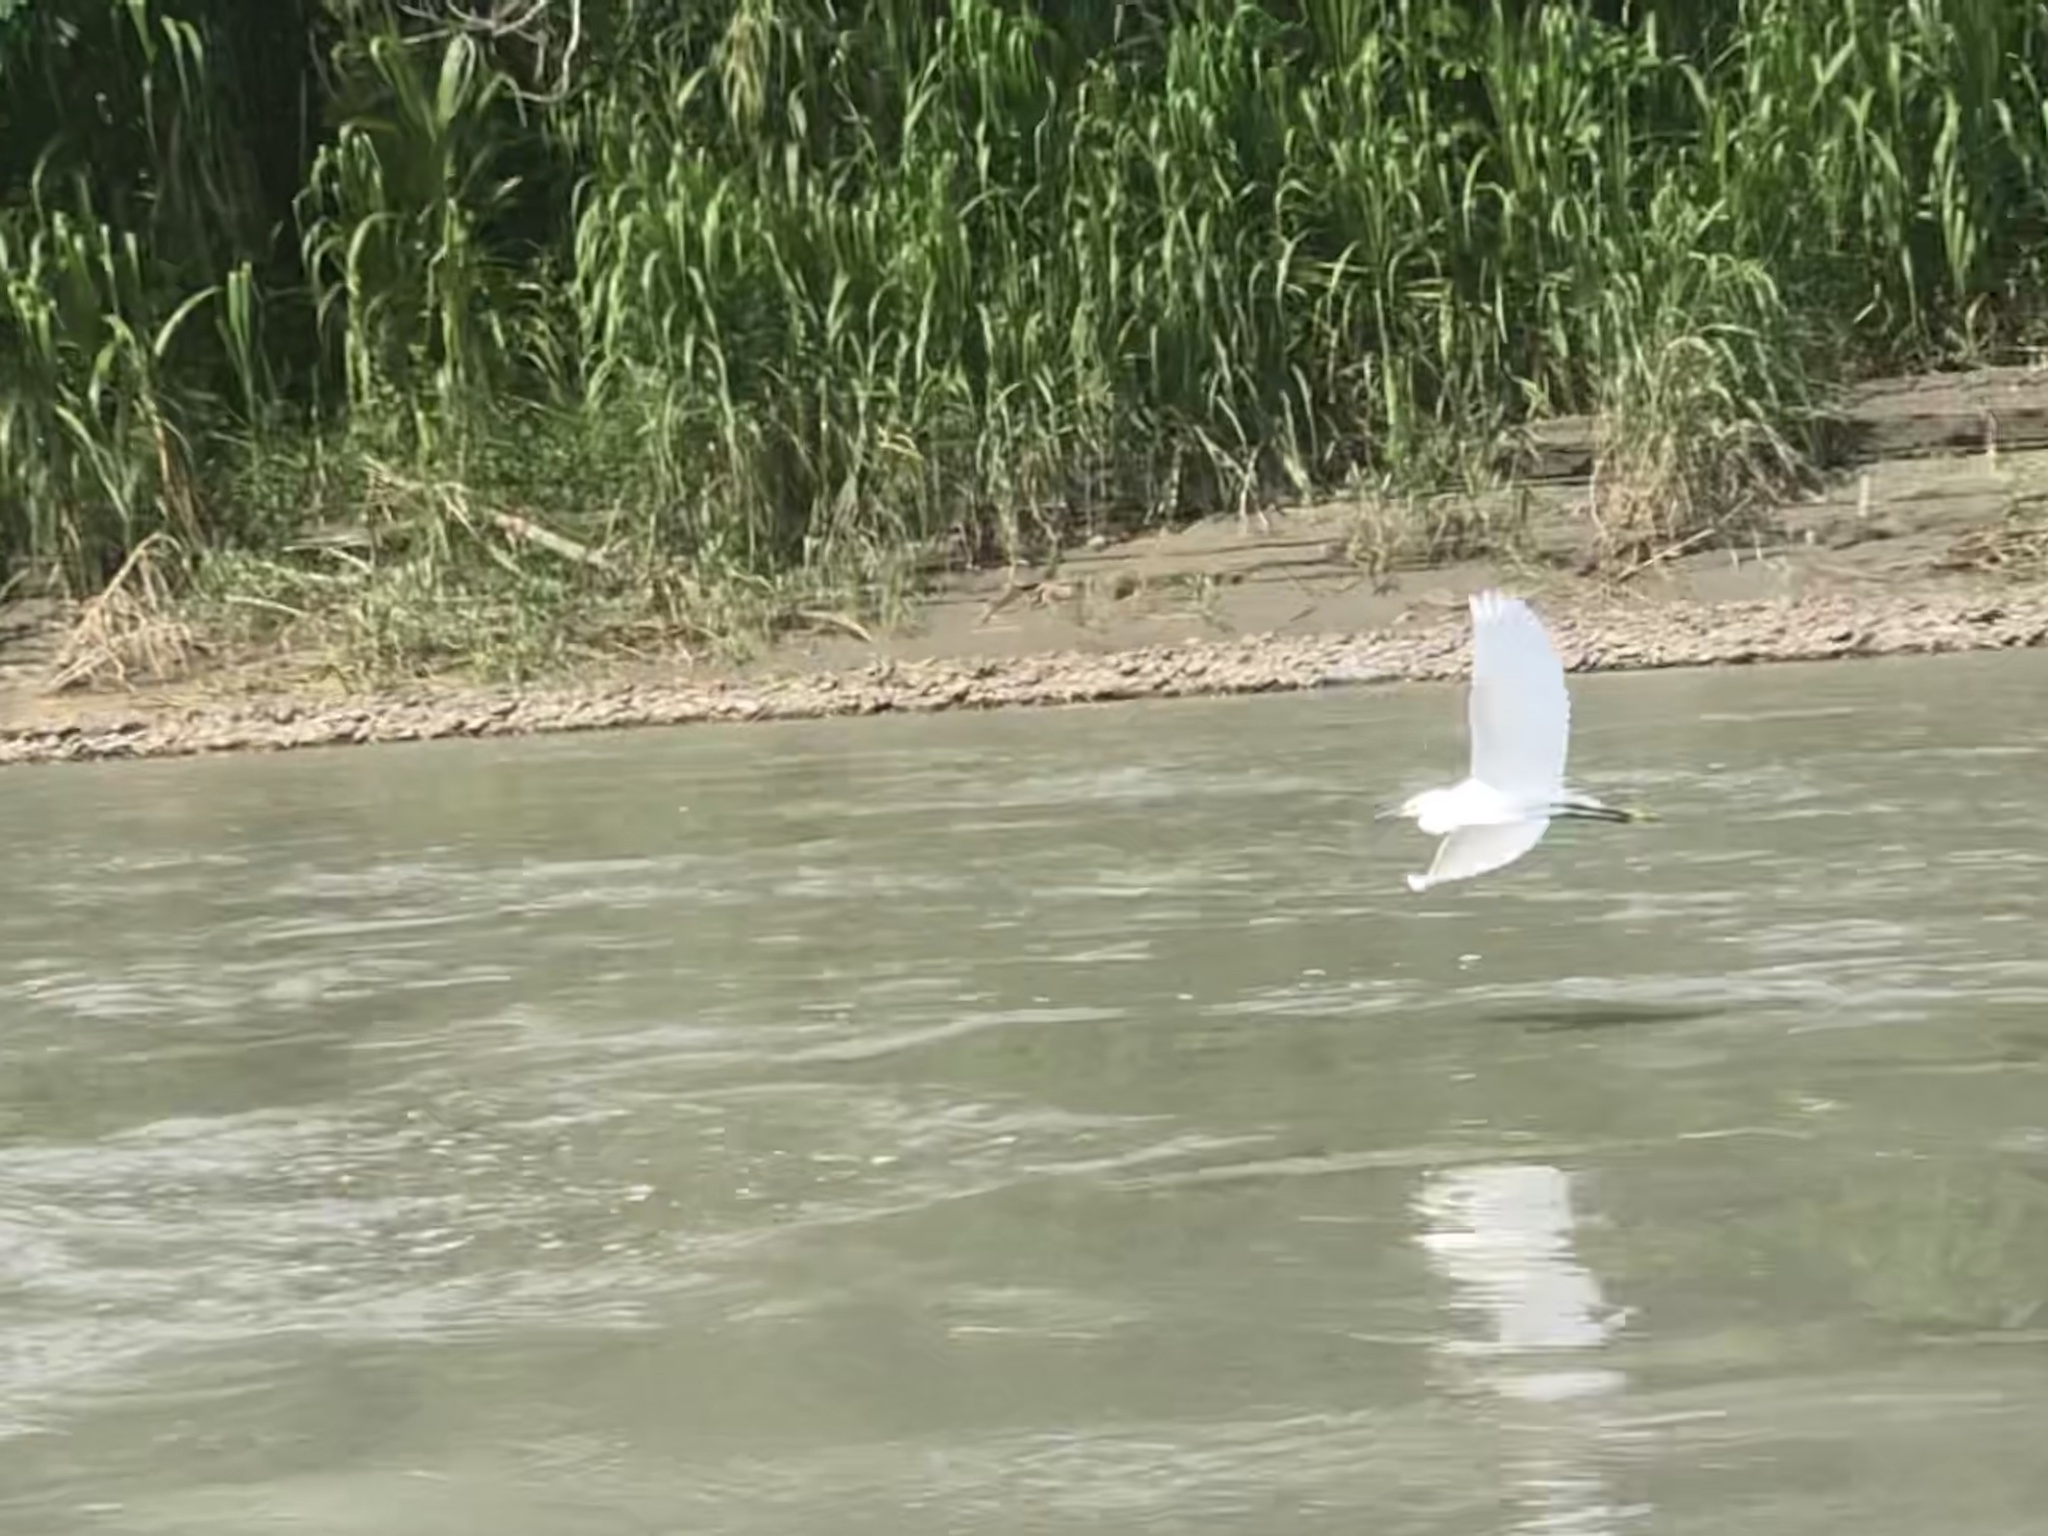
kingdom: Animalia
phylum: Chordata
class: Aves
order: Pelecaniformes
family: Ardeidae
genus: Egretta
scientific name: Egretta thula
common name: Snowy egret
